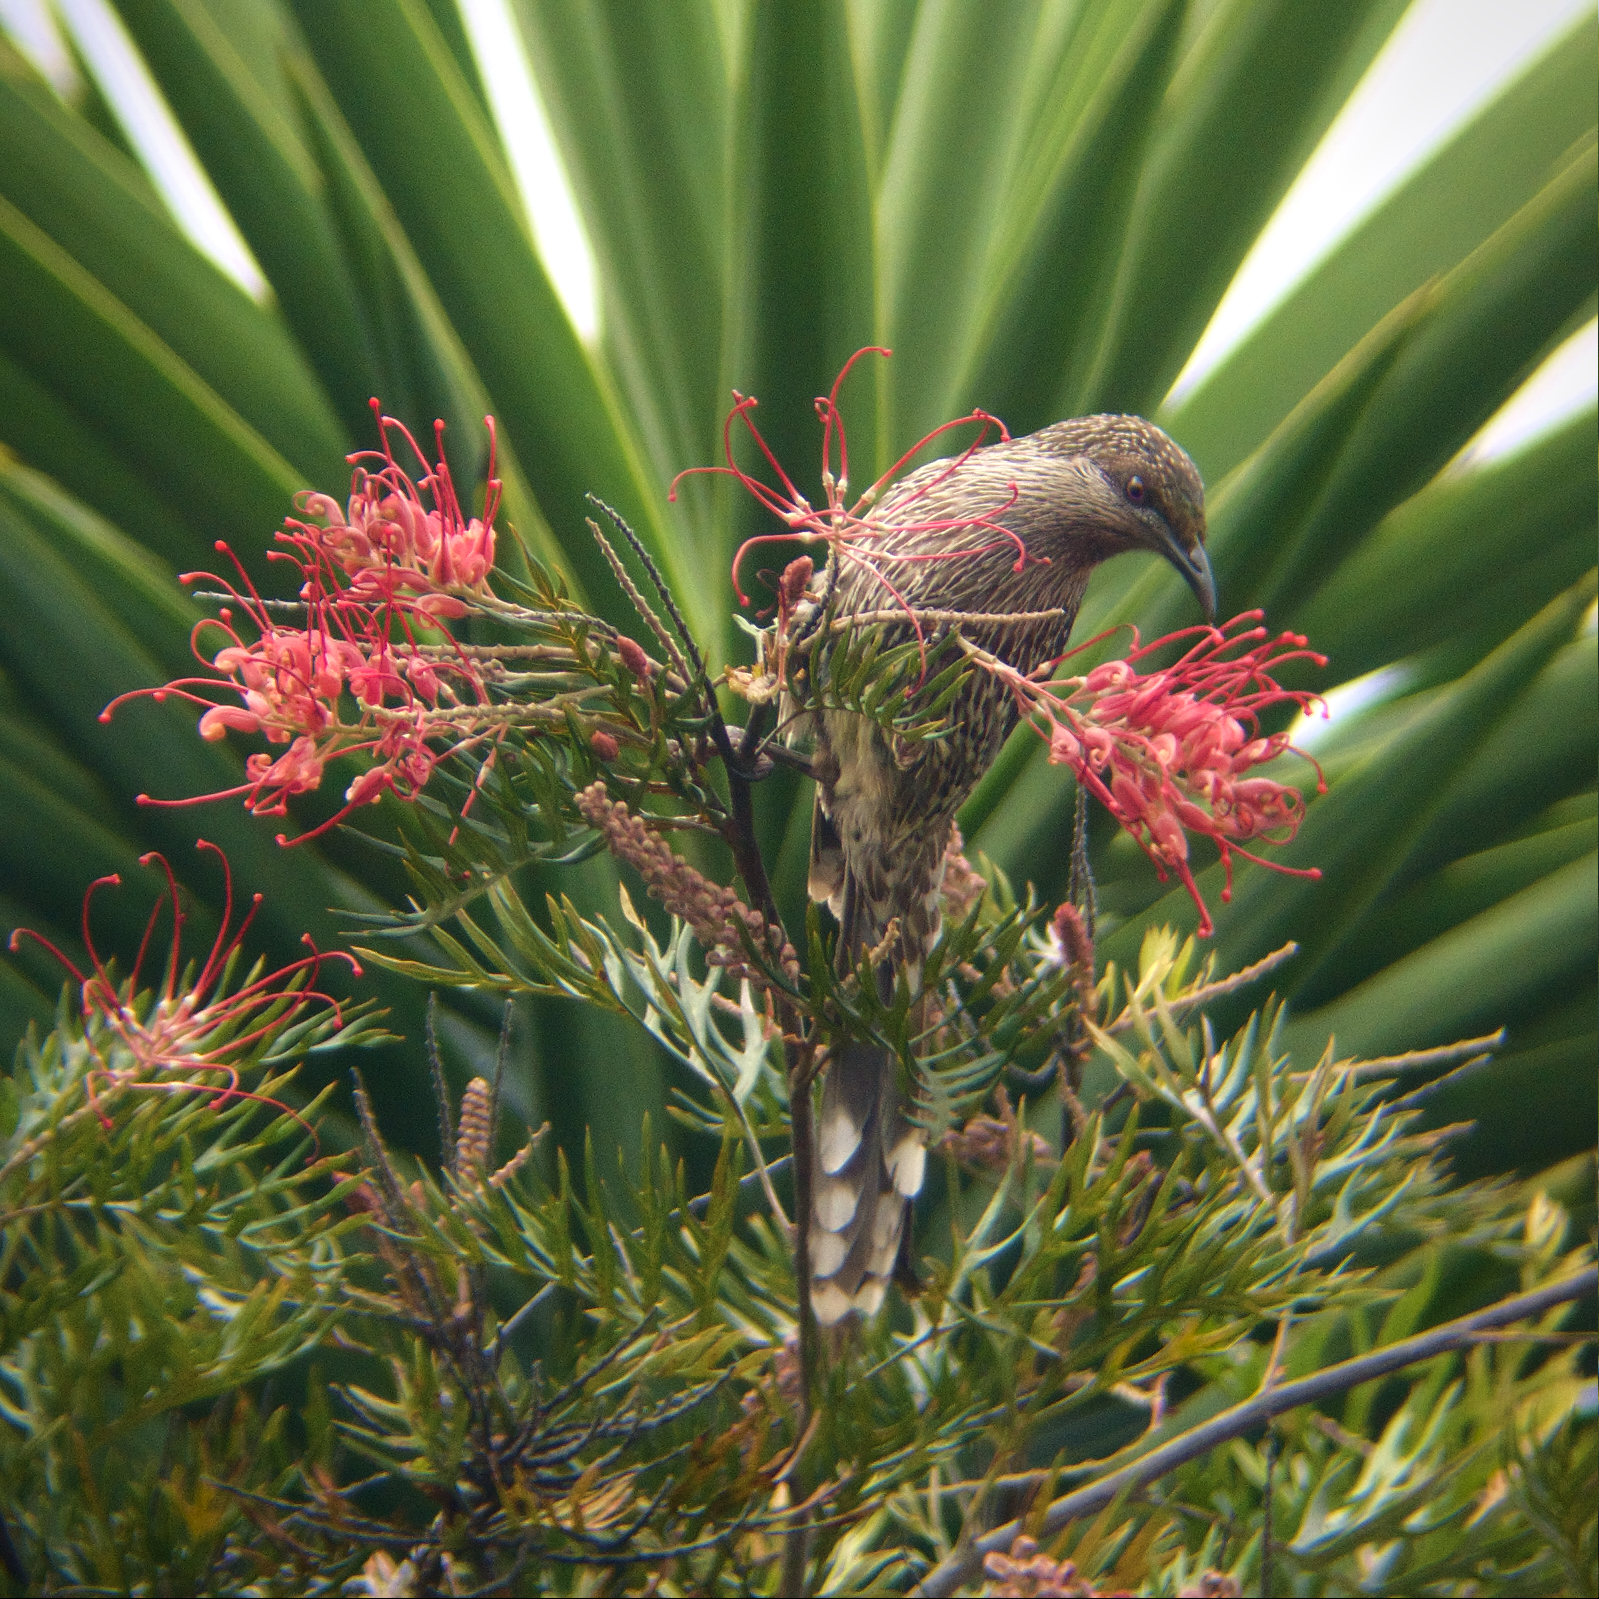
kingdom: Animalia
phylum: Chordata
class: Aves
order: Passeriformes
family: Meliphagidae
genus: Anthochaera
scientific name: Anthochaera chrysoptera
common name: Little wattlebird
